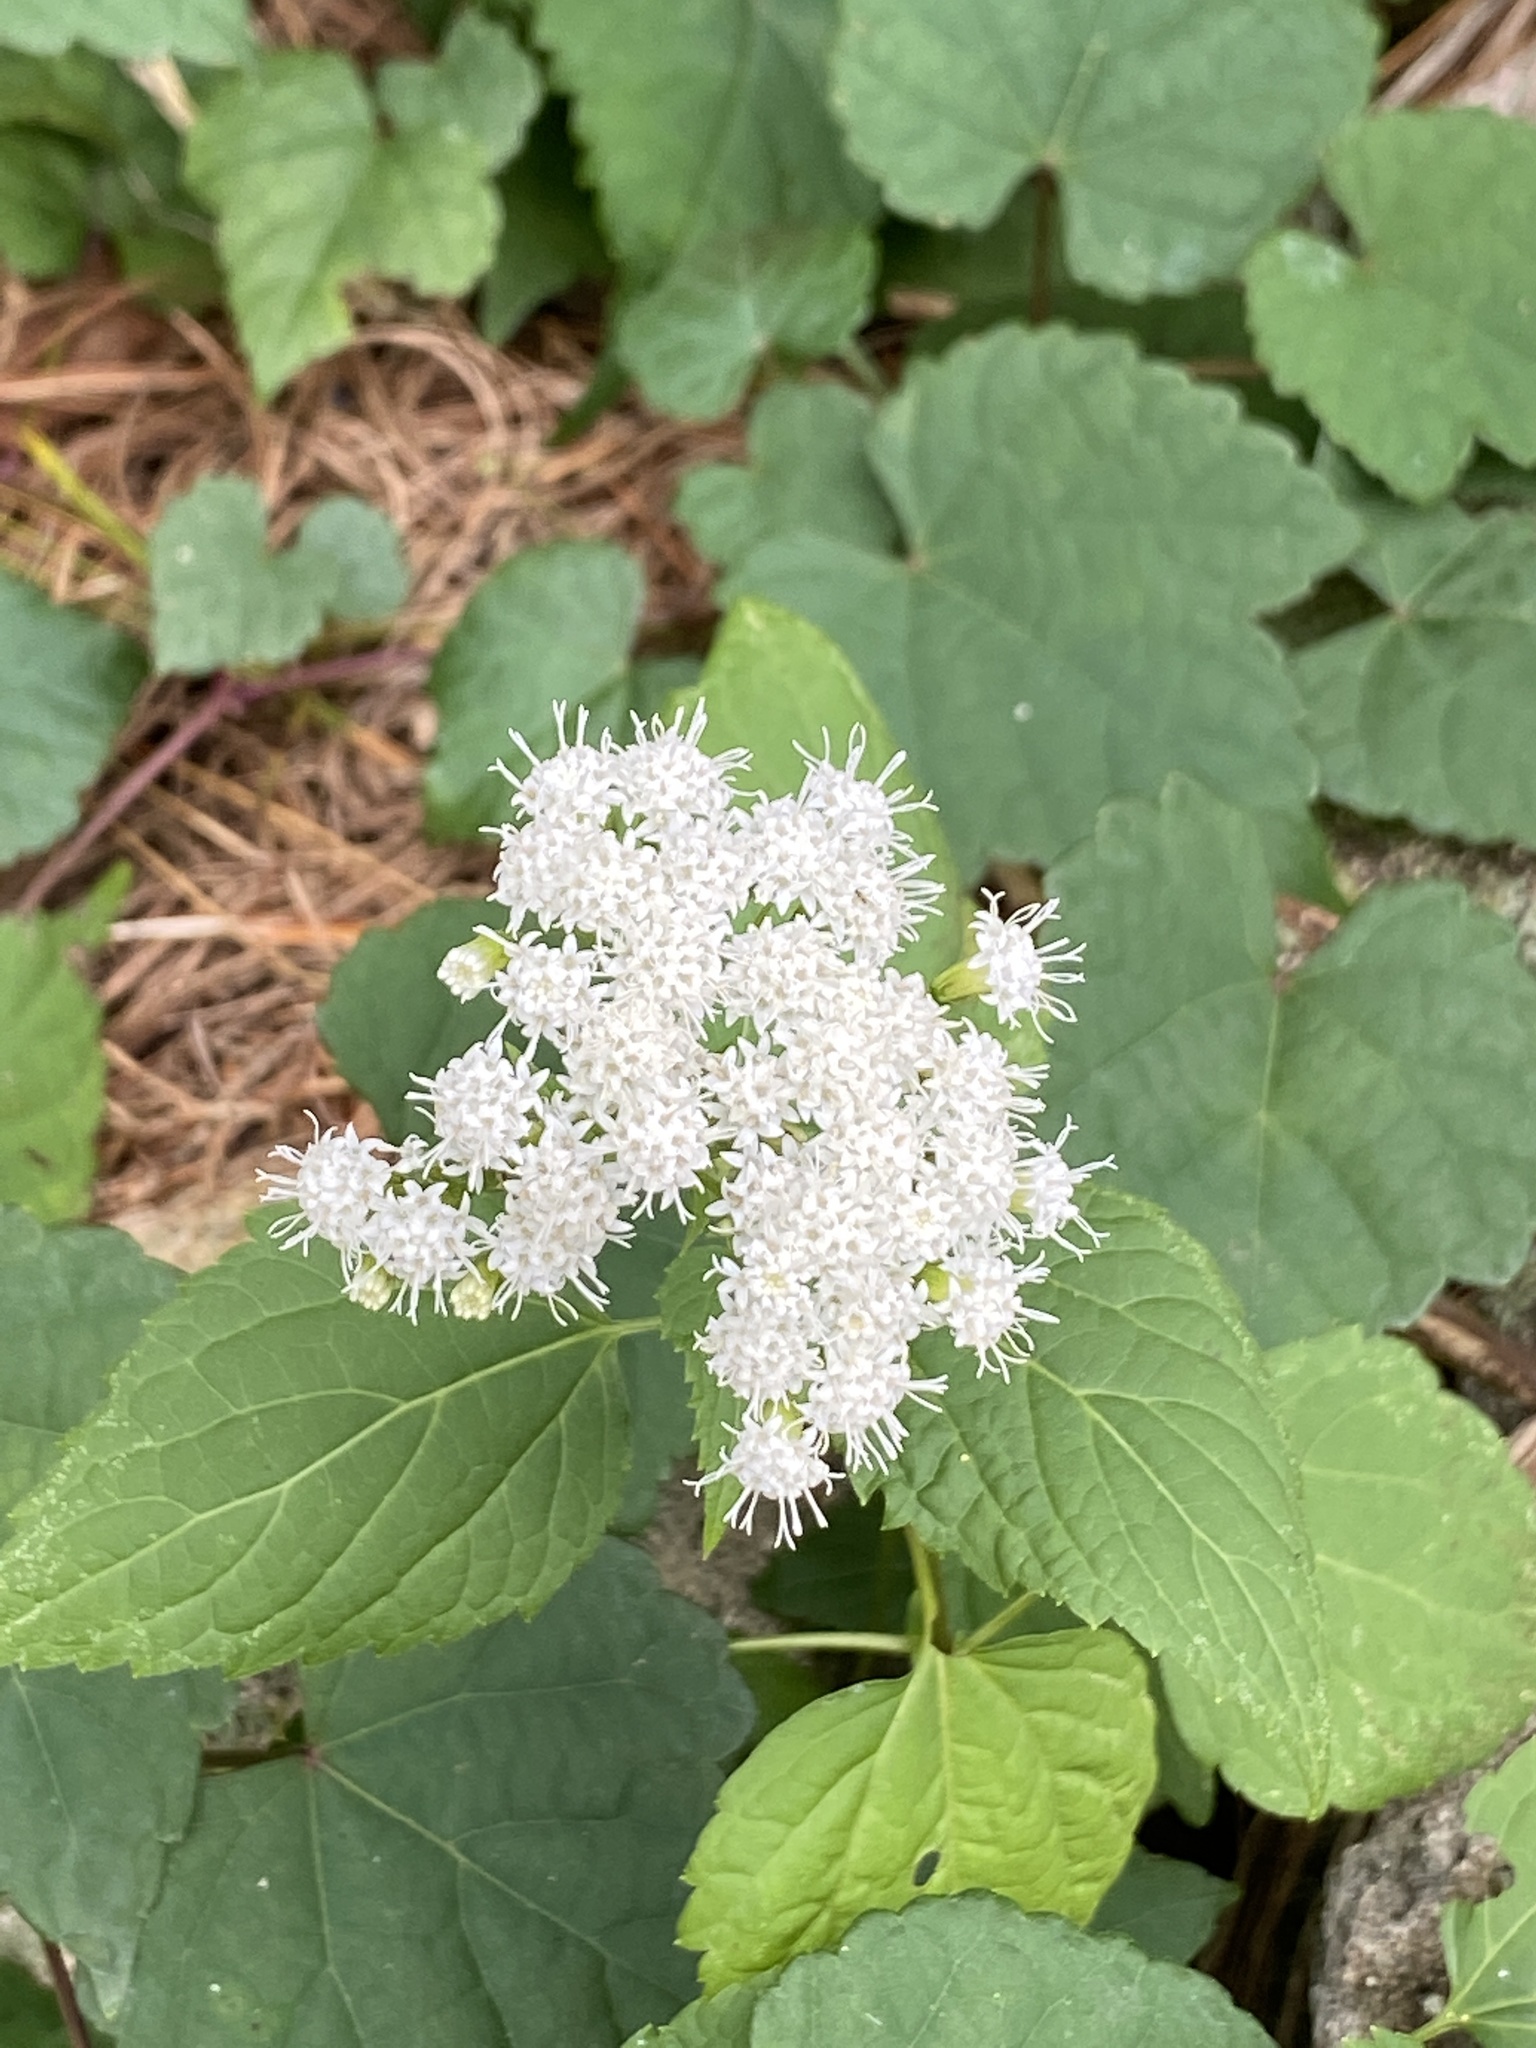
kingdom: Plantae
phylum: Tracheophyta
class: Magnoliopsida
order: Asterales
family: Asteraceae
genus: Ageratina
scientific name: Ageratina altissima
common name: White snakeroot
